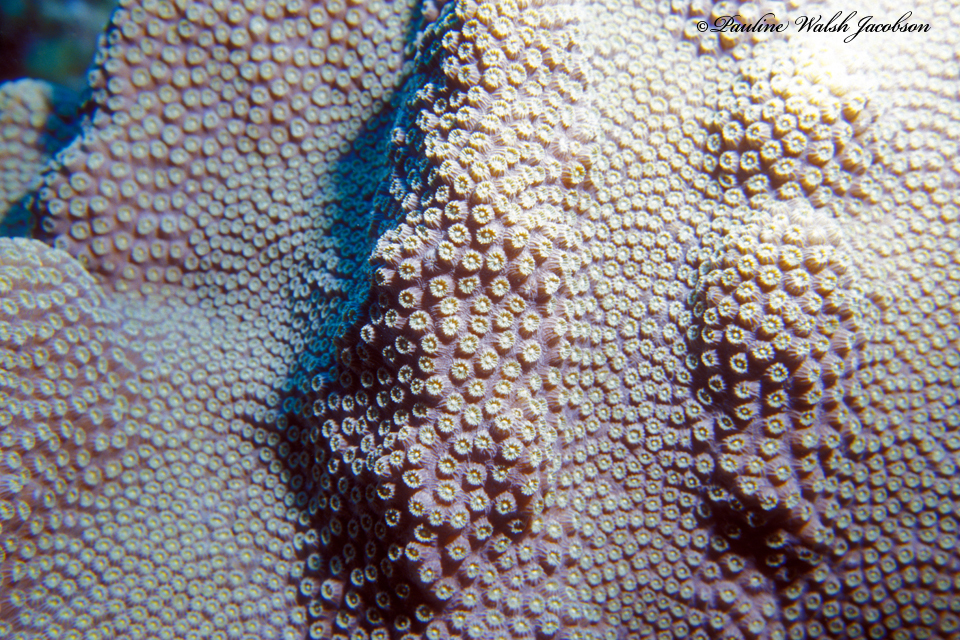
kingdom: Animalia
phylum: Cnidaria
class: Anthozoa
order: Scleractinia
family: Merulinidae
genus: Orbicella
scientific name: Orbicella faveolata
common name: Mountainous star coral
